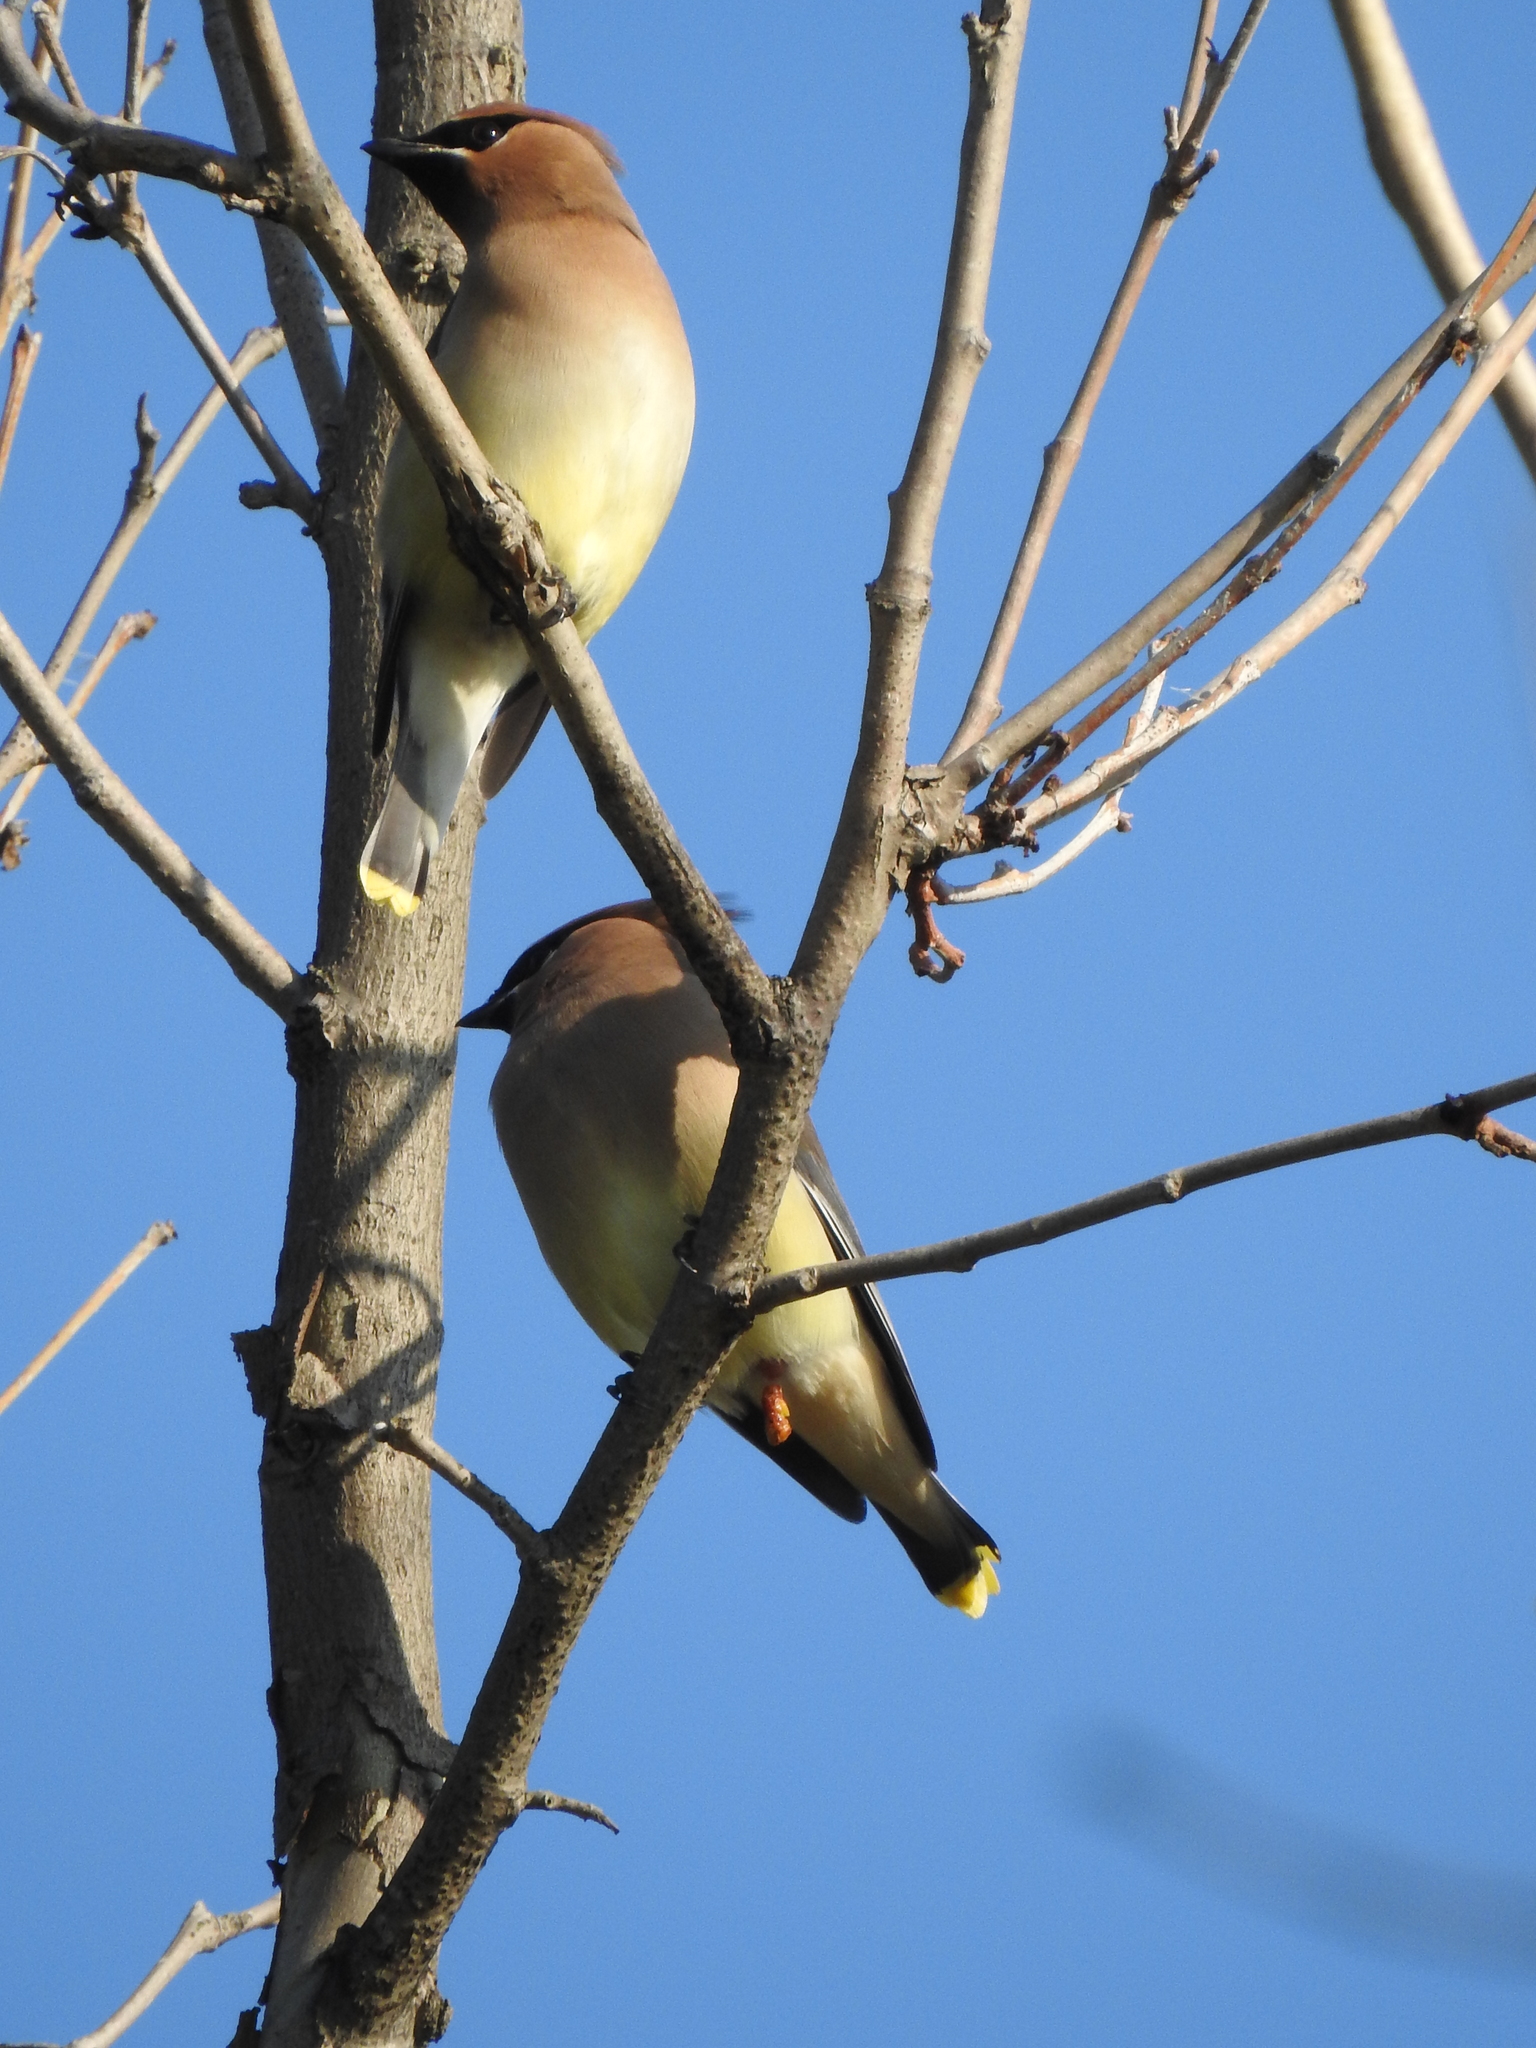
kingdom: Animalia
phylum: Chordata
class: Aves
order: Passeriformes
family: Bombycillidae
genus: Bombycilla
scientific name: Bombycilla cedrorum
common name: Cedar waxwing
